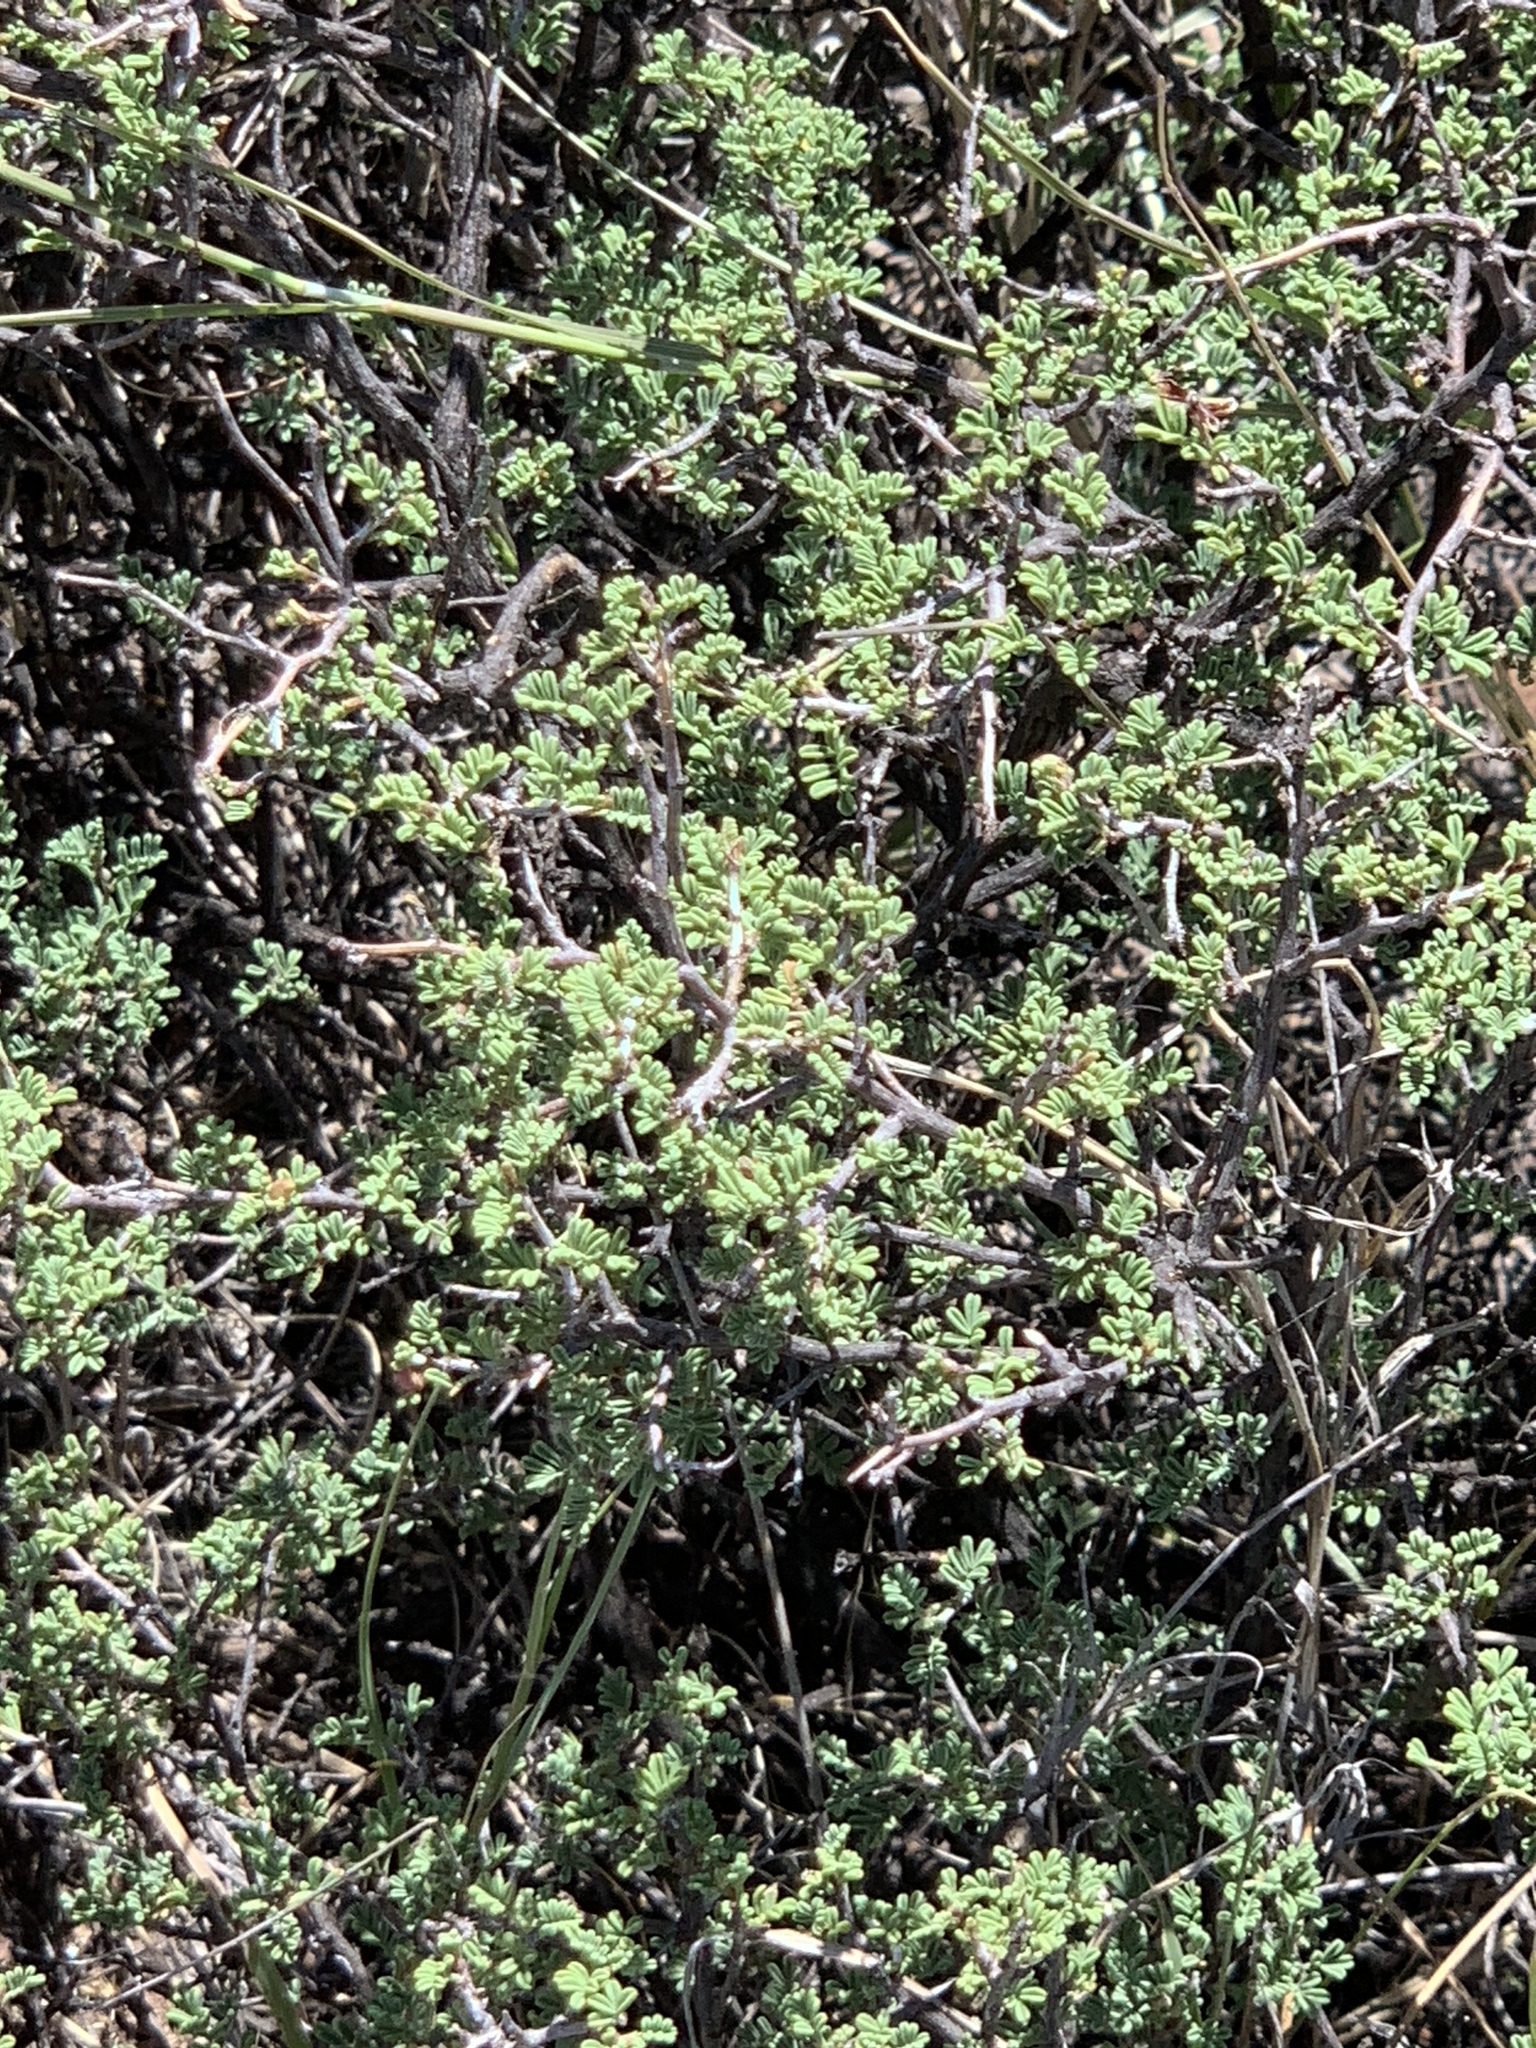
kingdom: Plantae
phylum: Tracheophyta
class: Magnoliopsida
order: Fabales
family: Fabaceae
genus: Dalea
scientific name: Dalea formosa
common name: Feather-plume dalea
